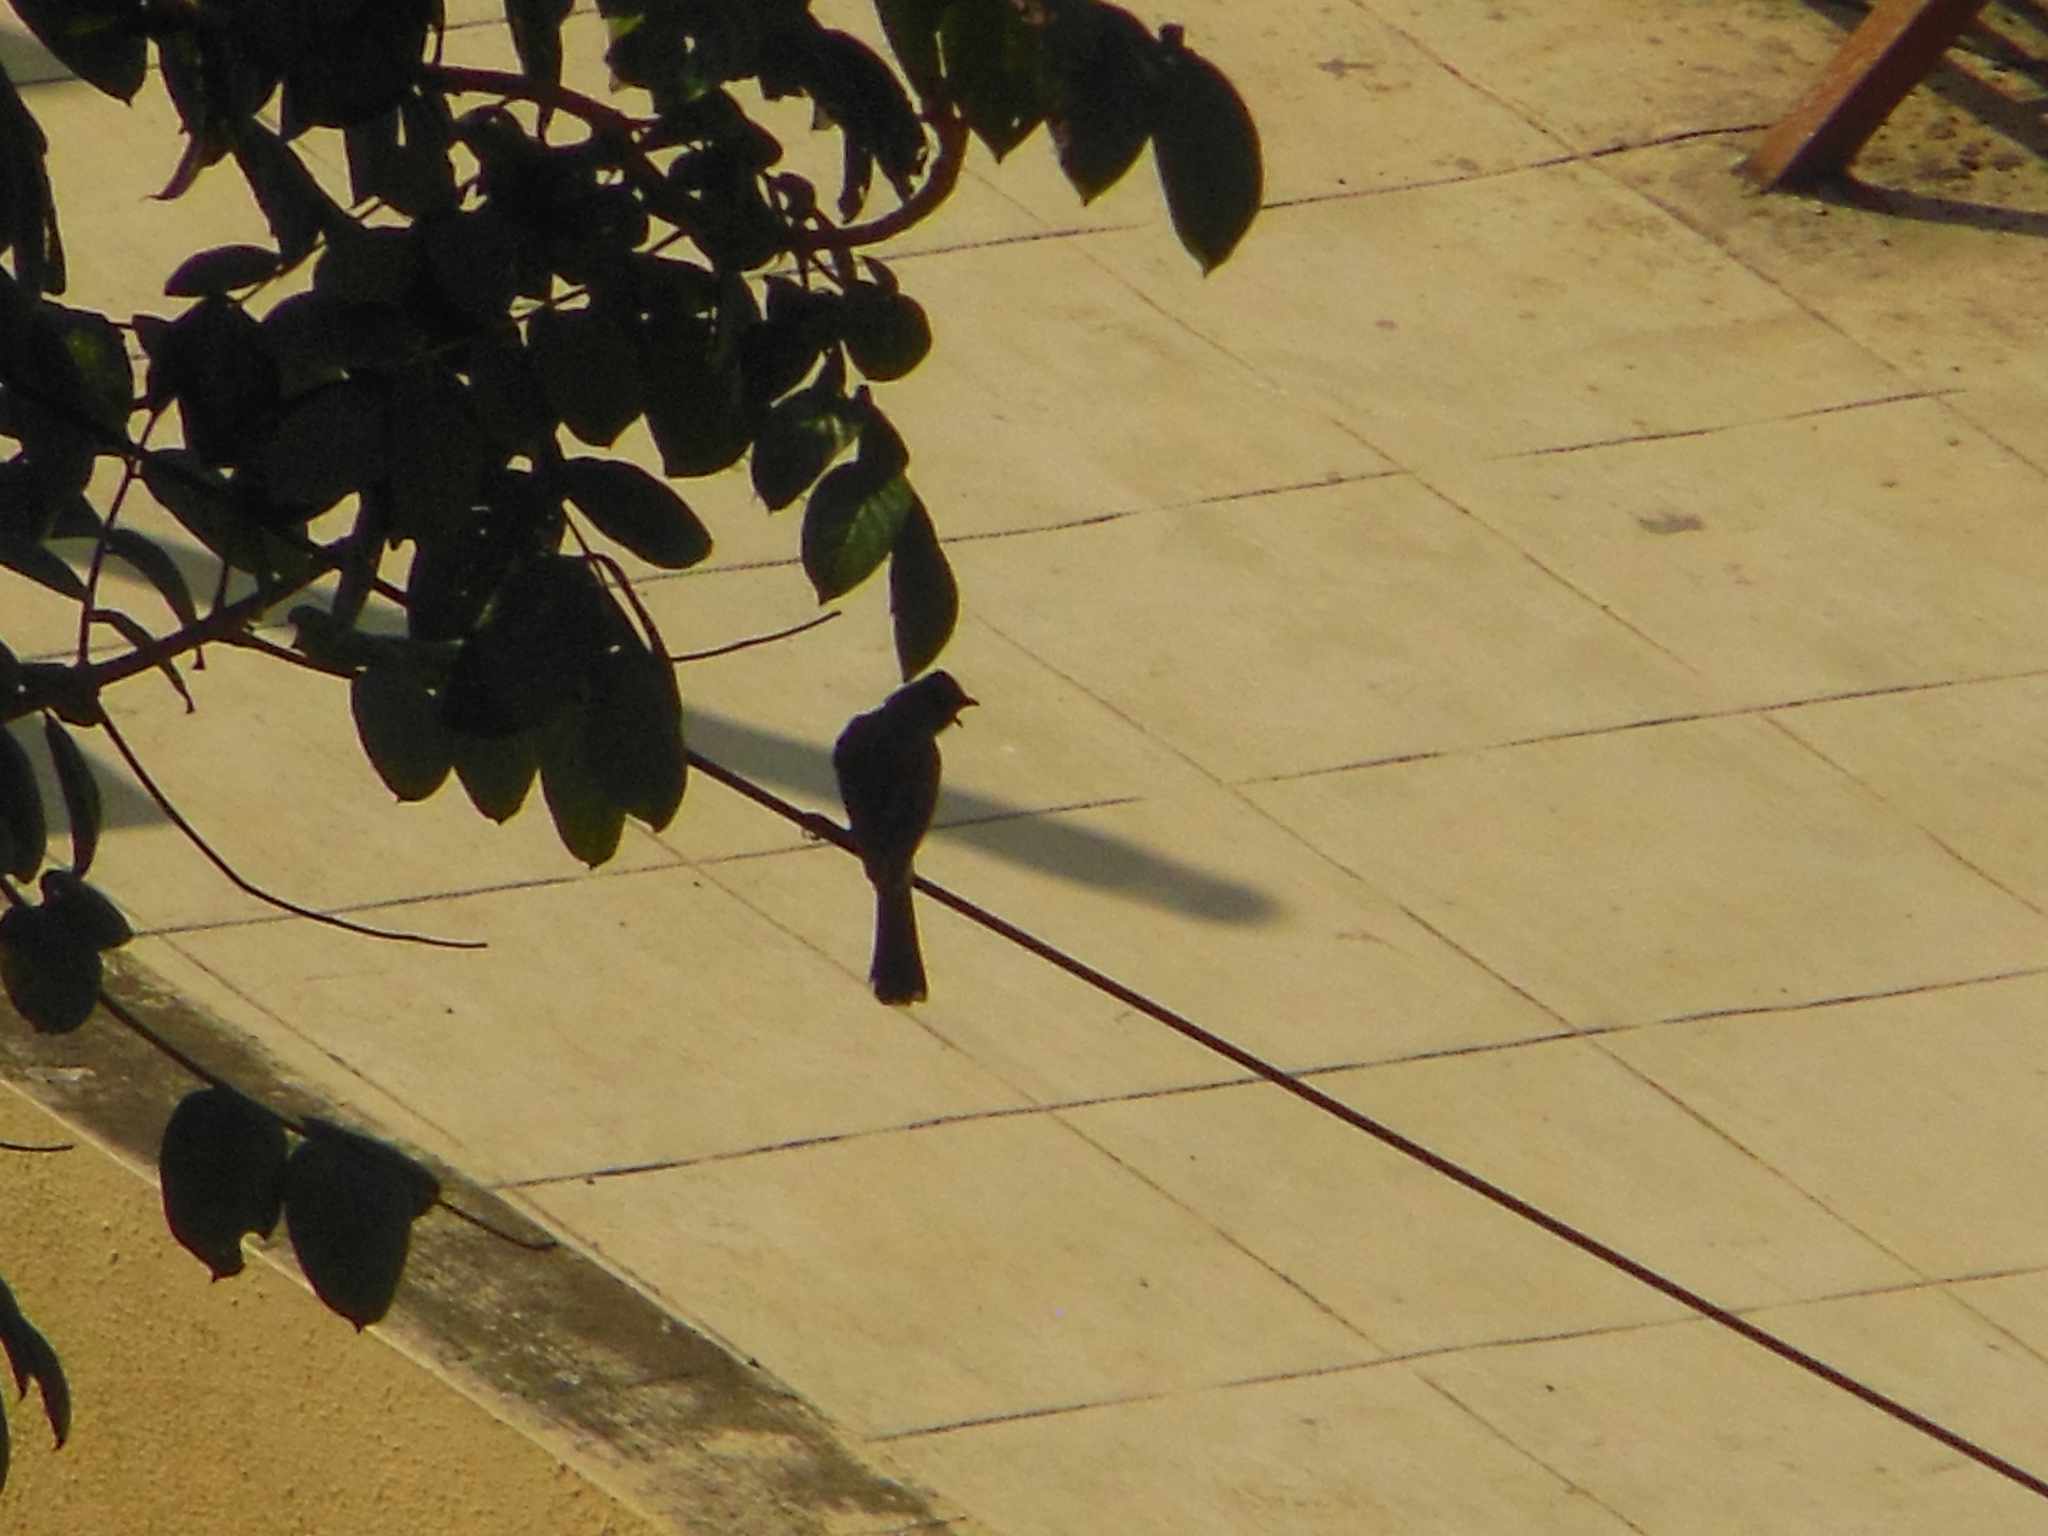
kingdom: Animalia
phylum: Chordata
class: Aves
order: Passeriformes
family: Pycnonotidae
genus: Pycnonotus
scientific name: Pycnonotus cafer
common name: Red-vented bulbul
